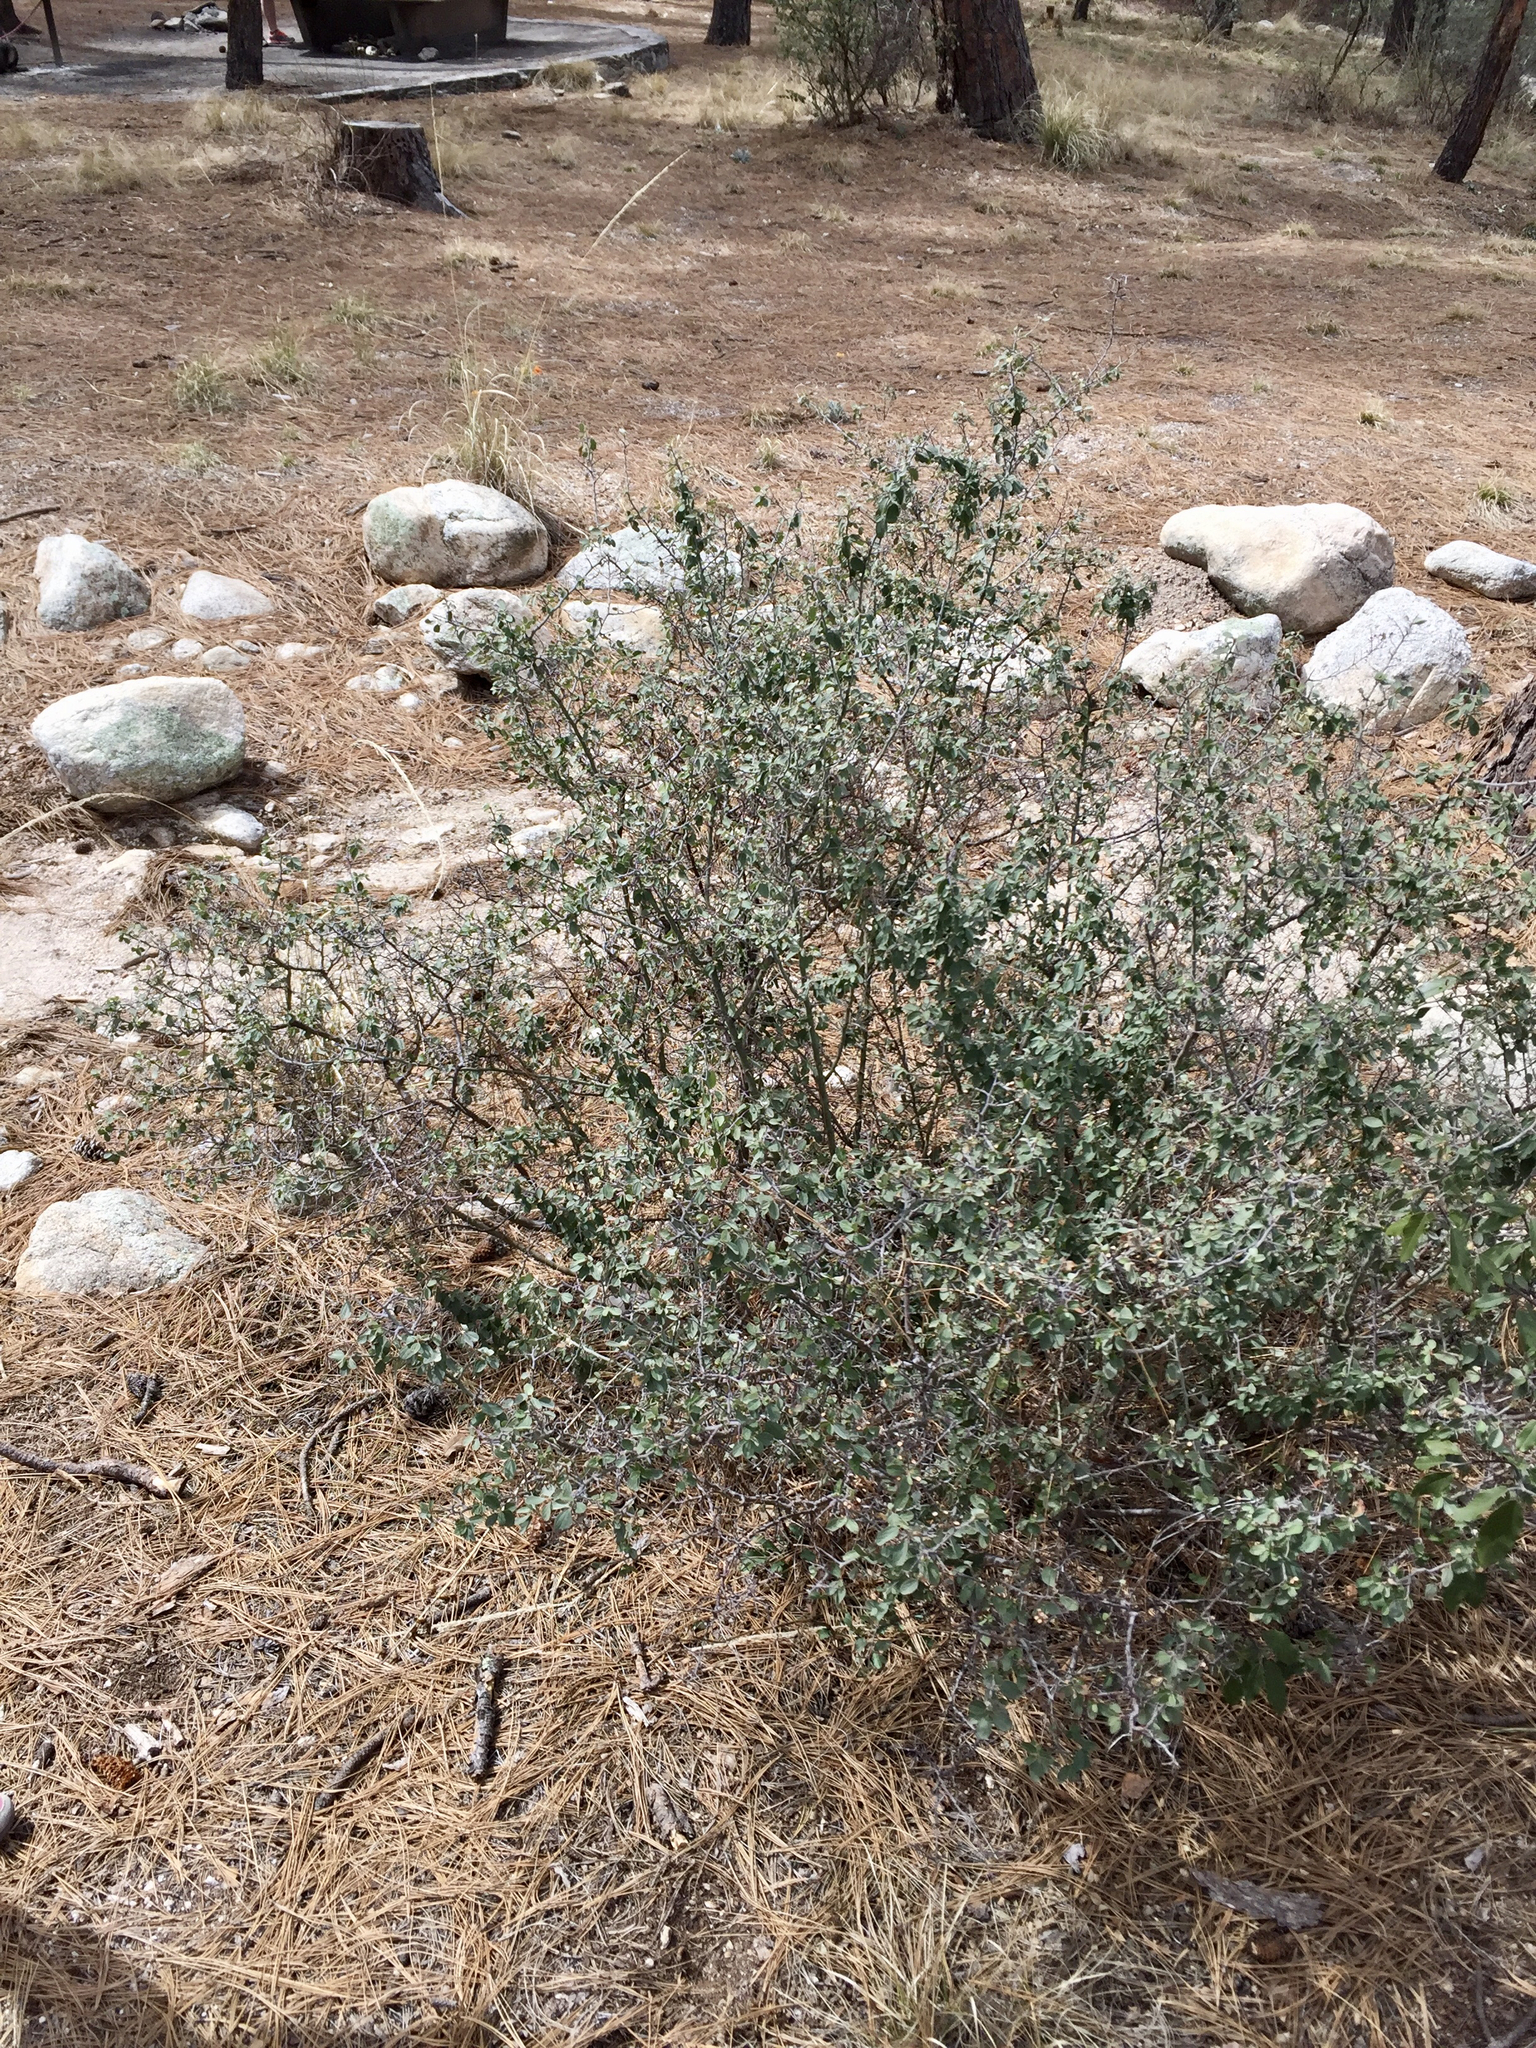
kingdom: Plantae
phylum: Tracheophyta
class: Magnoliopsida
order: Rosales
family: Rhamnaceae
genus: Ceanothus
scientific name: Ceanothus fendleri
